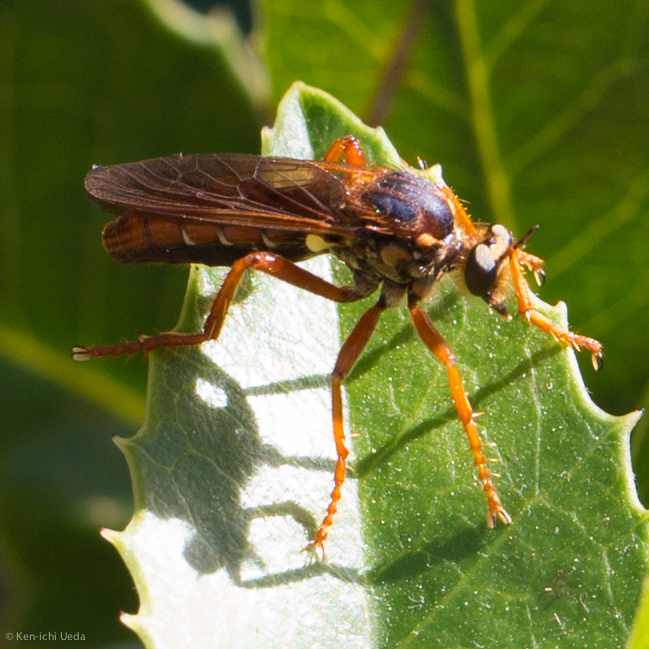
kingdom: Animalia
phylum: Arthropoda
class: Insecta
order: Diptera
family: Asilidae
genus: Callinicus
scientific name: Callinicus calcaneus
